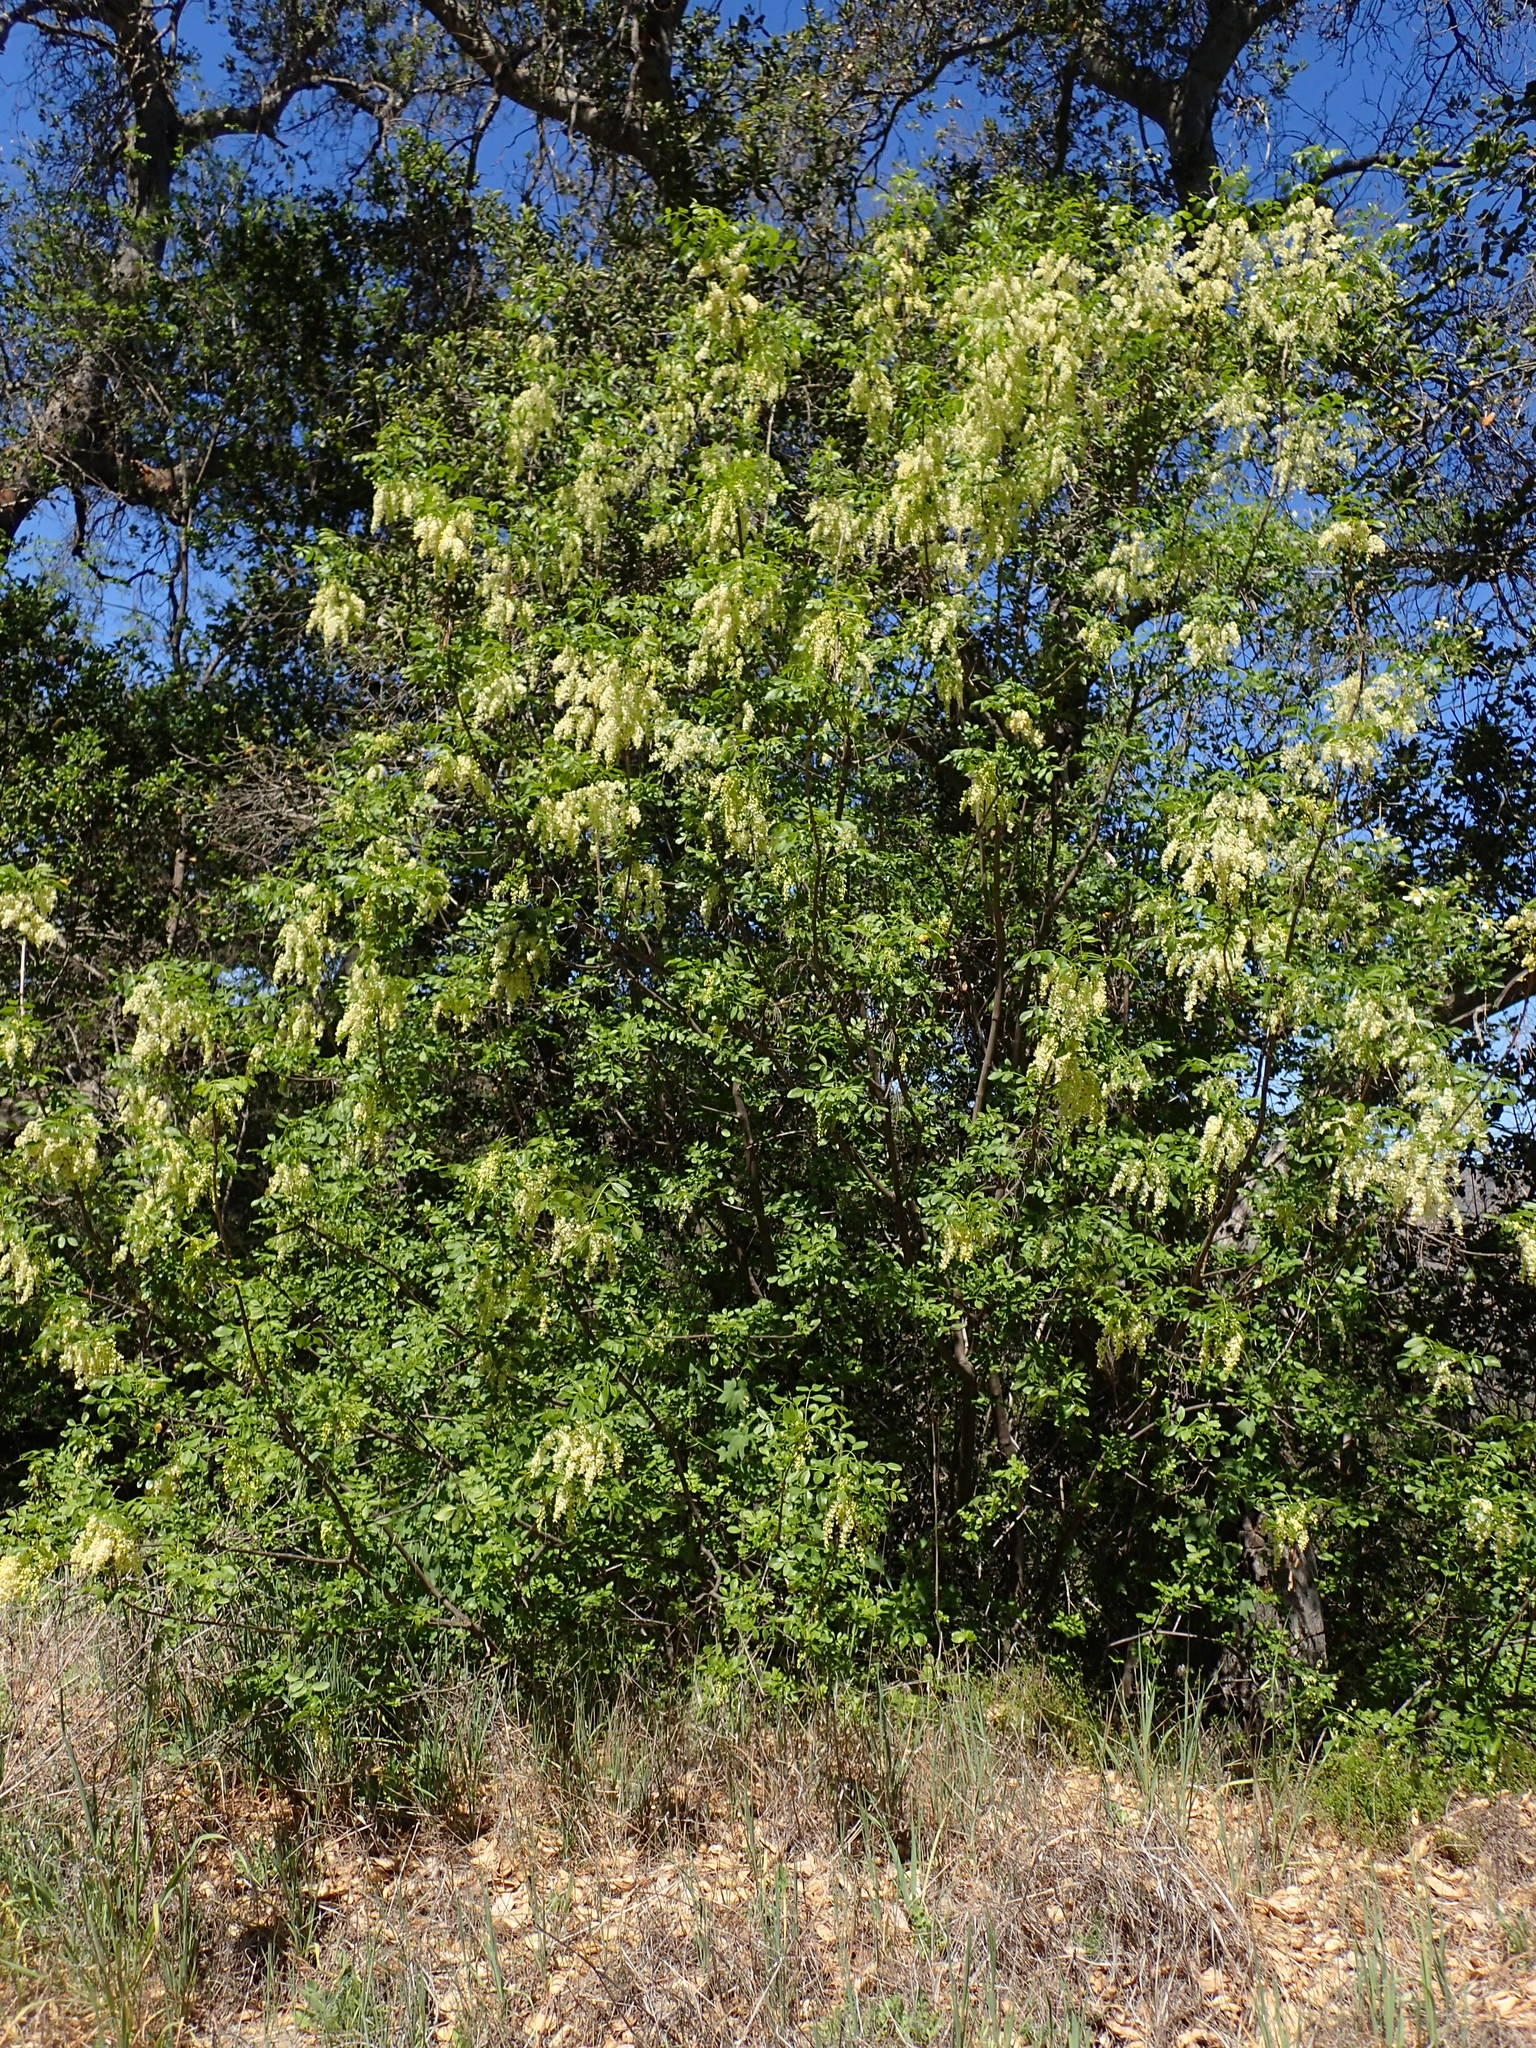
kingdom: Plantae
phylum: Tracheophyta
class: Magnoliopsida
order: Lamiales
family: Oleaceae
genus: Fraxinus
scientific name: Fraxinus dipetala
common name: California ash
